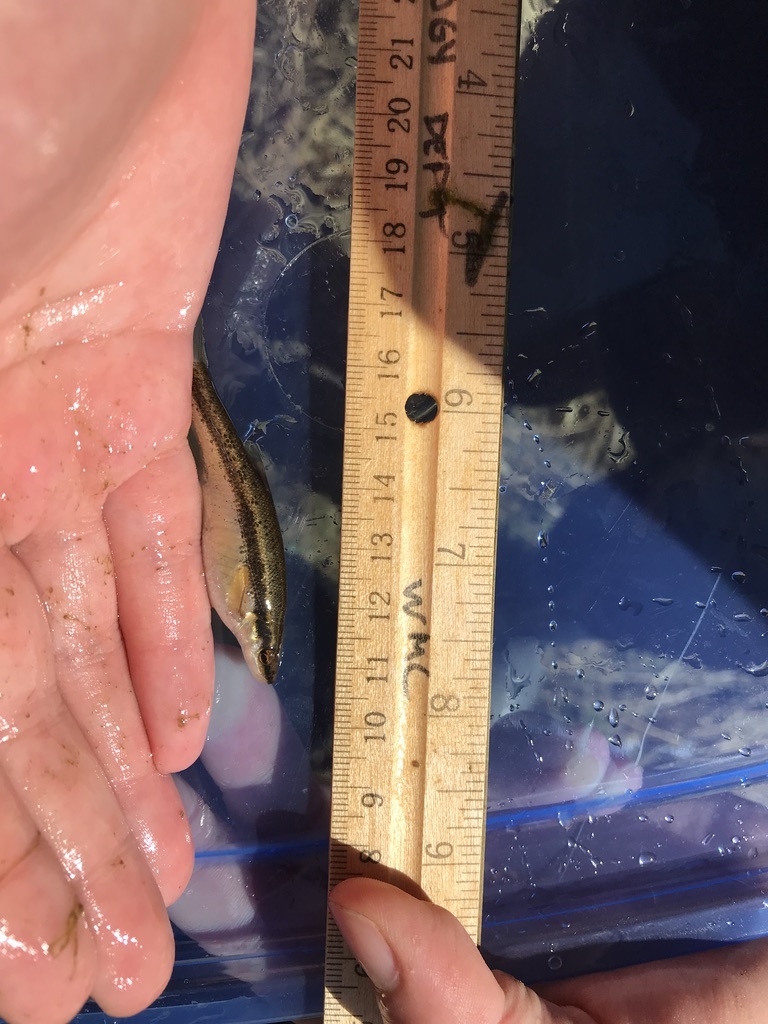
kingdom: Animalia
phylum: Chordata
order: Cypriniformes
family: Cyprinidae
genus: Rhinichthys
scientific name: Rhinichthys atratulus
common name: Eastern blacknose dace
